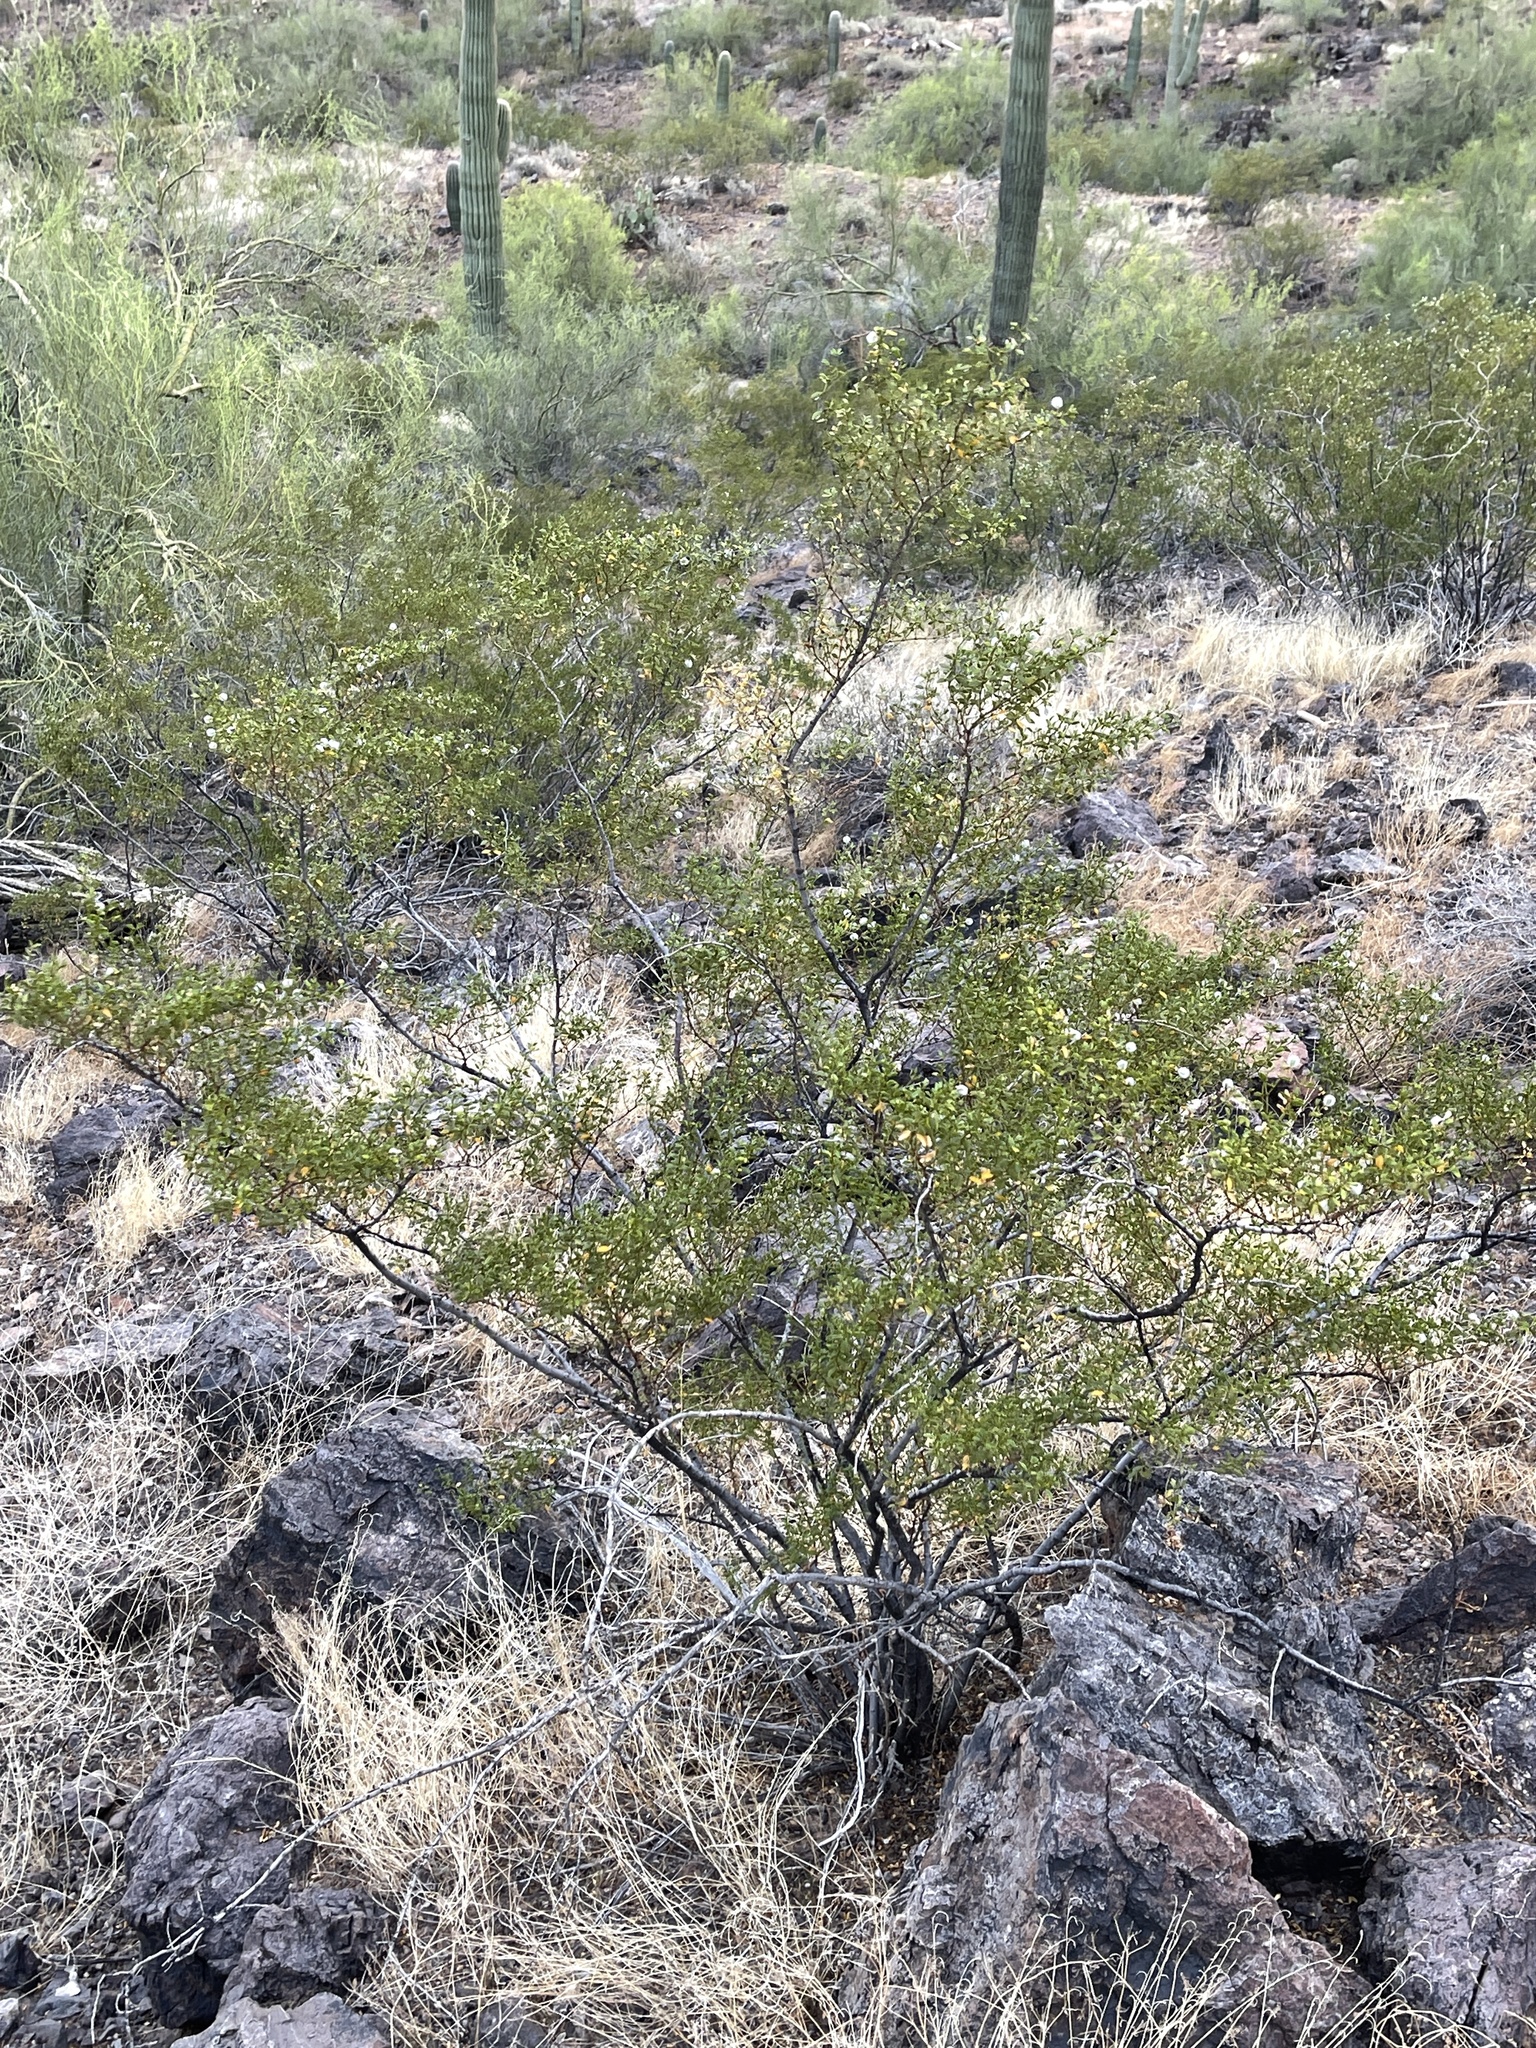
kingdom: Plantae
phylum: Tracheophyta
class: Magnoliopsida
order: Zygophyllales
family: Zygophyllaceae
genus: Larrea
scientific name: Larrea tridentata
